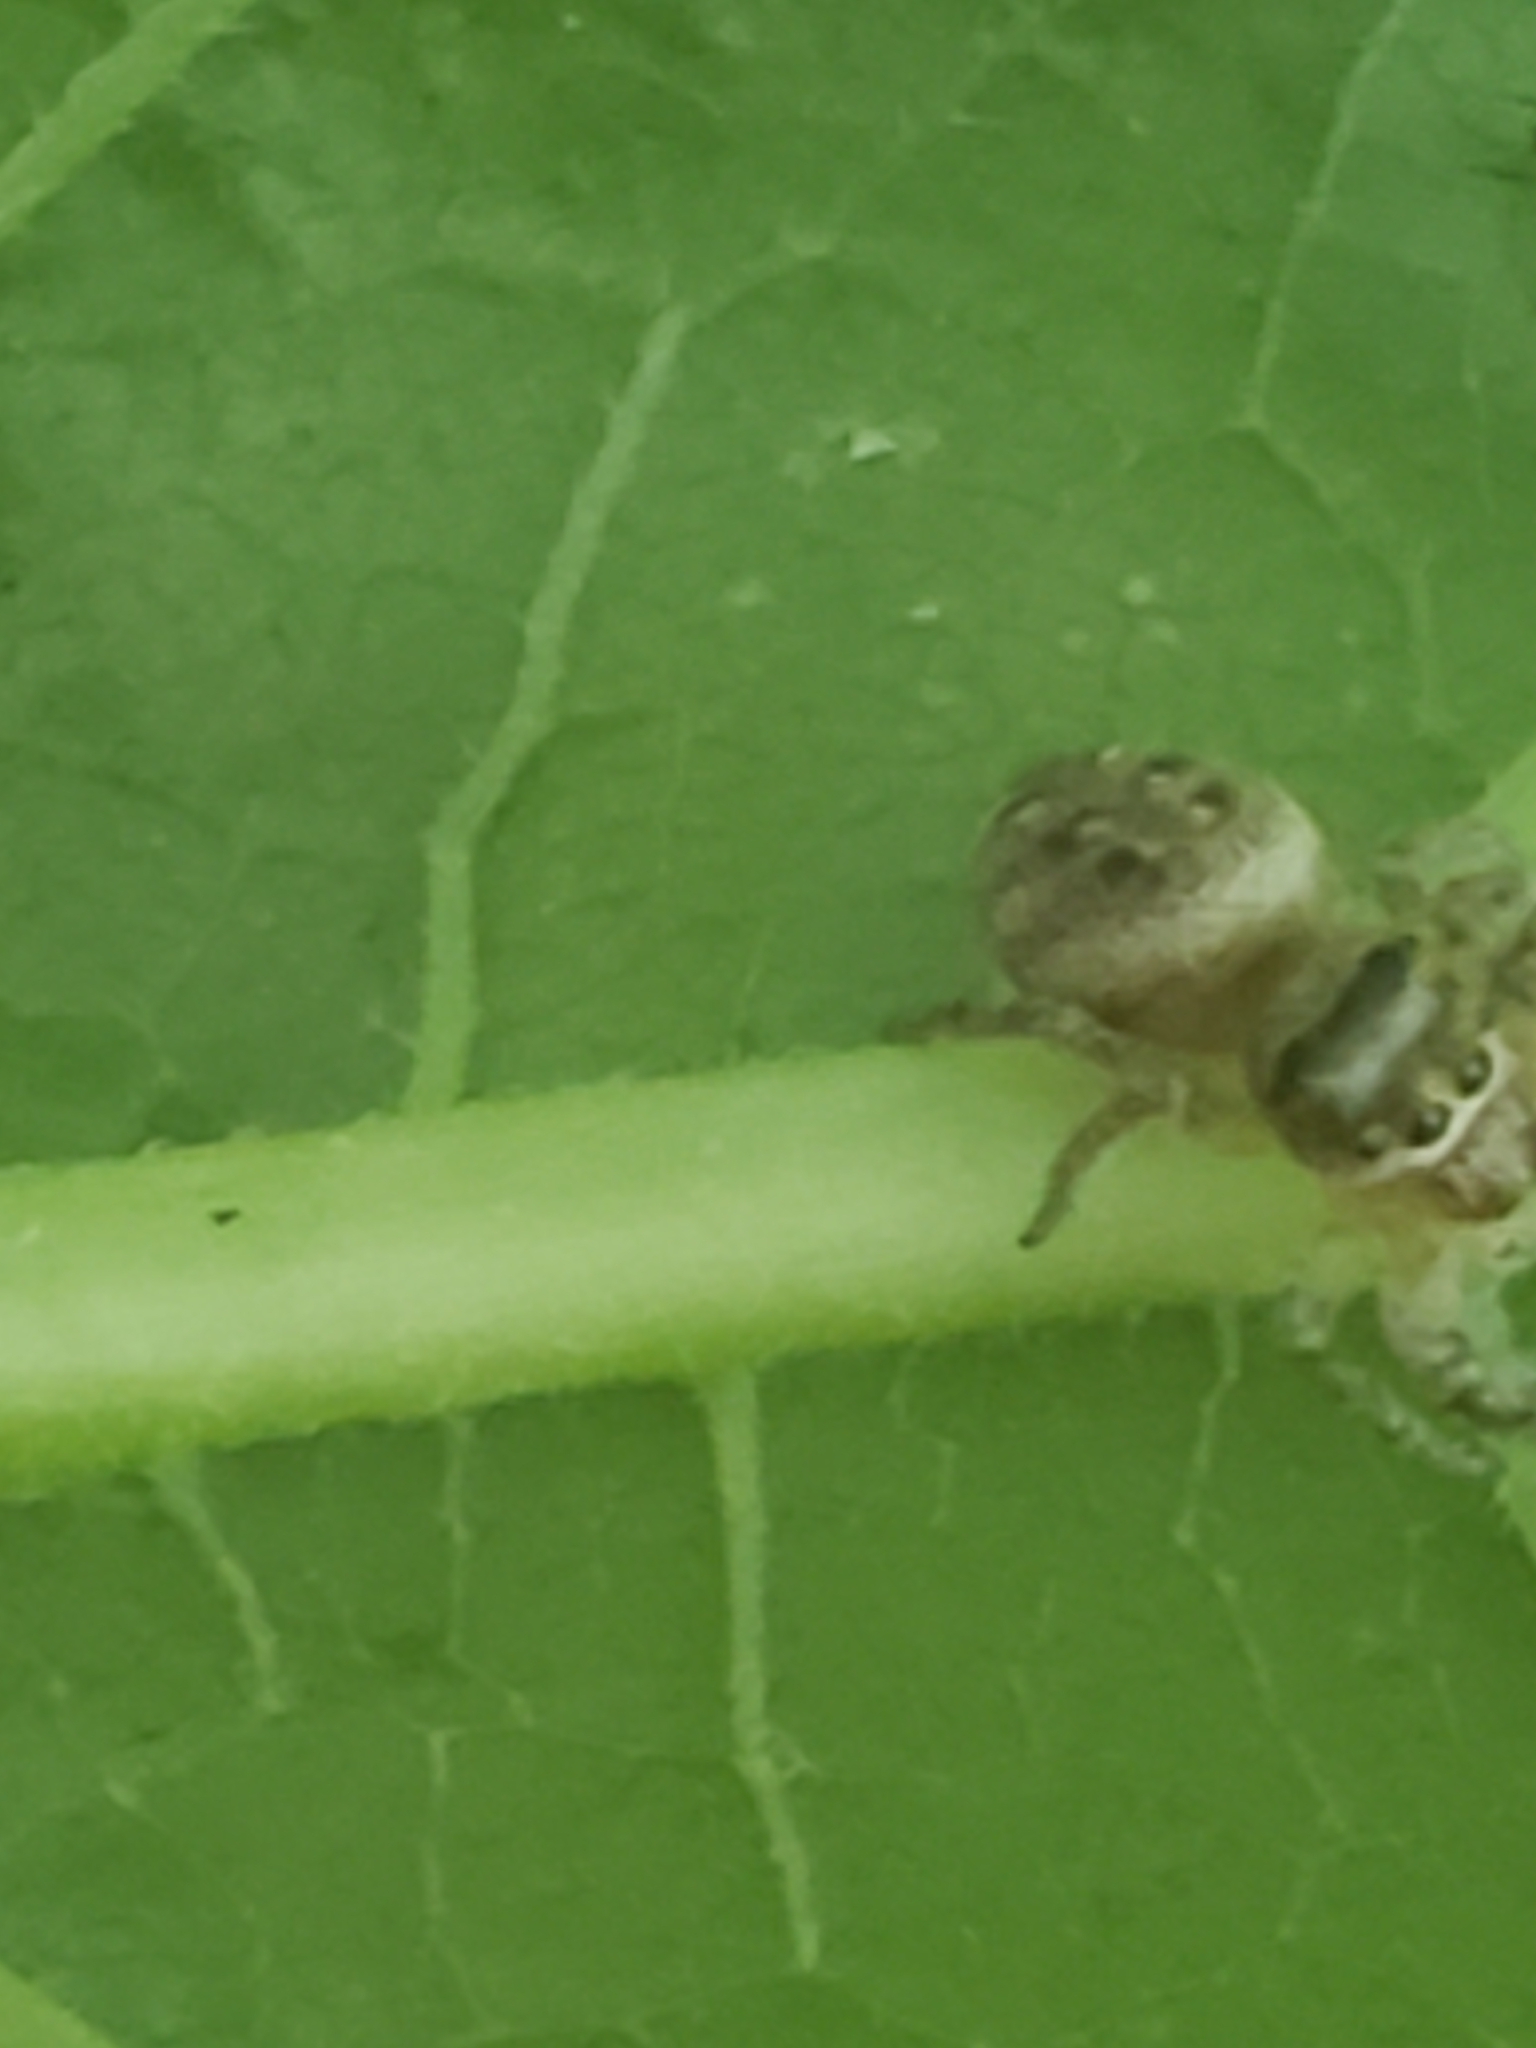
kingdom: Animalia
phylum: Arthropoda
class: Arachnida
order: Araneae
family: Salticidae
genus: Eris
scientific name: Eris militaris
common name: Bronze jumper
